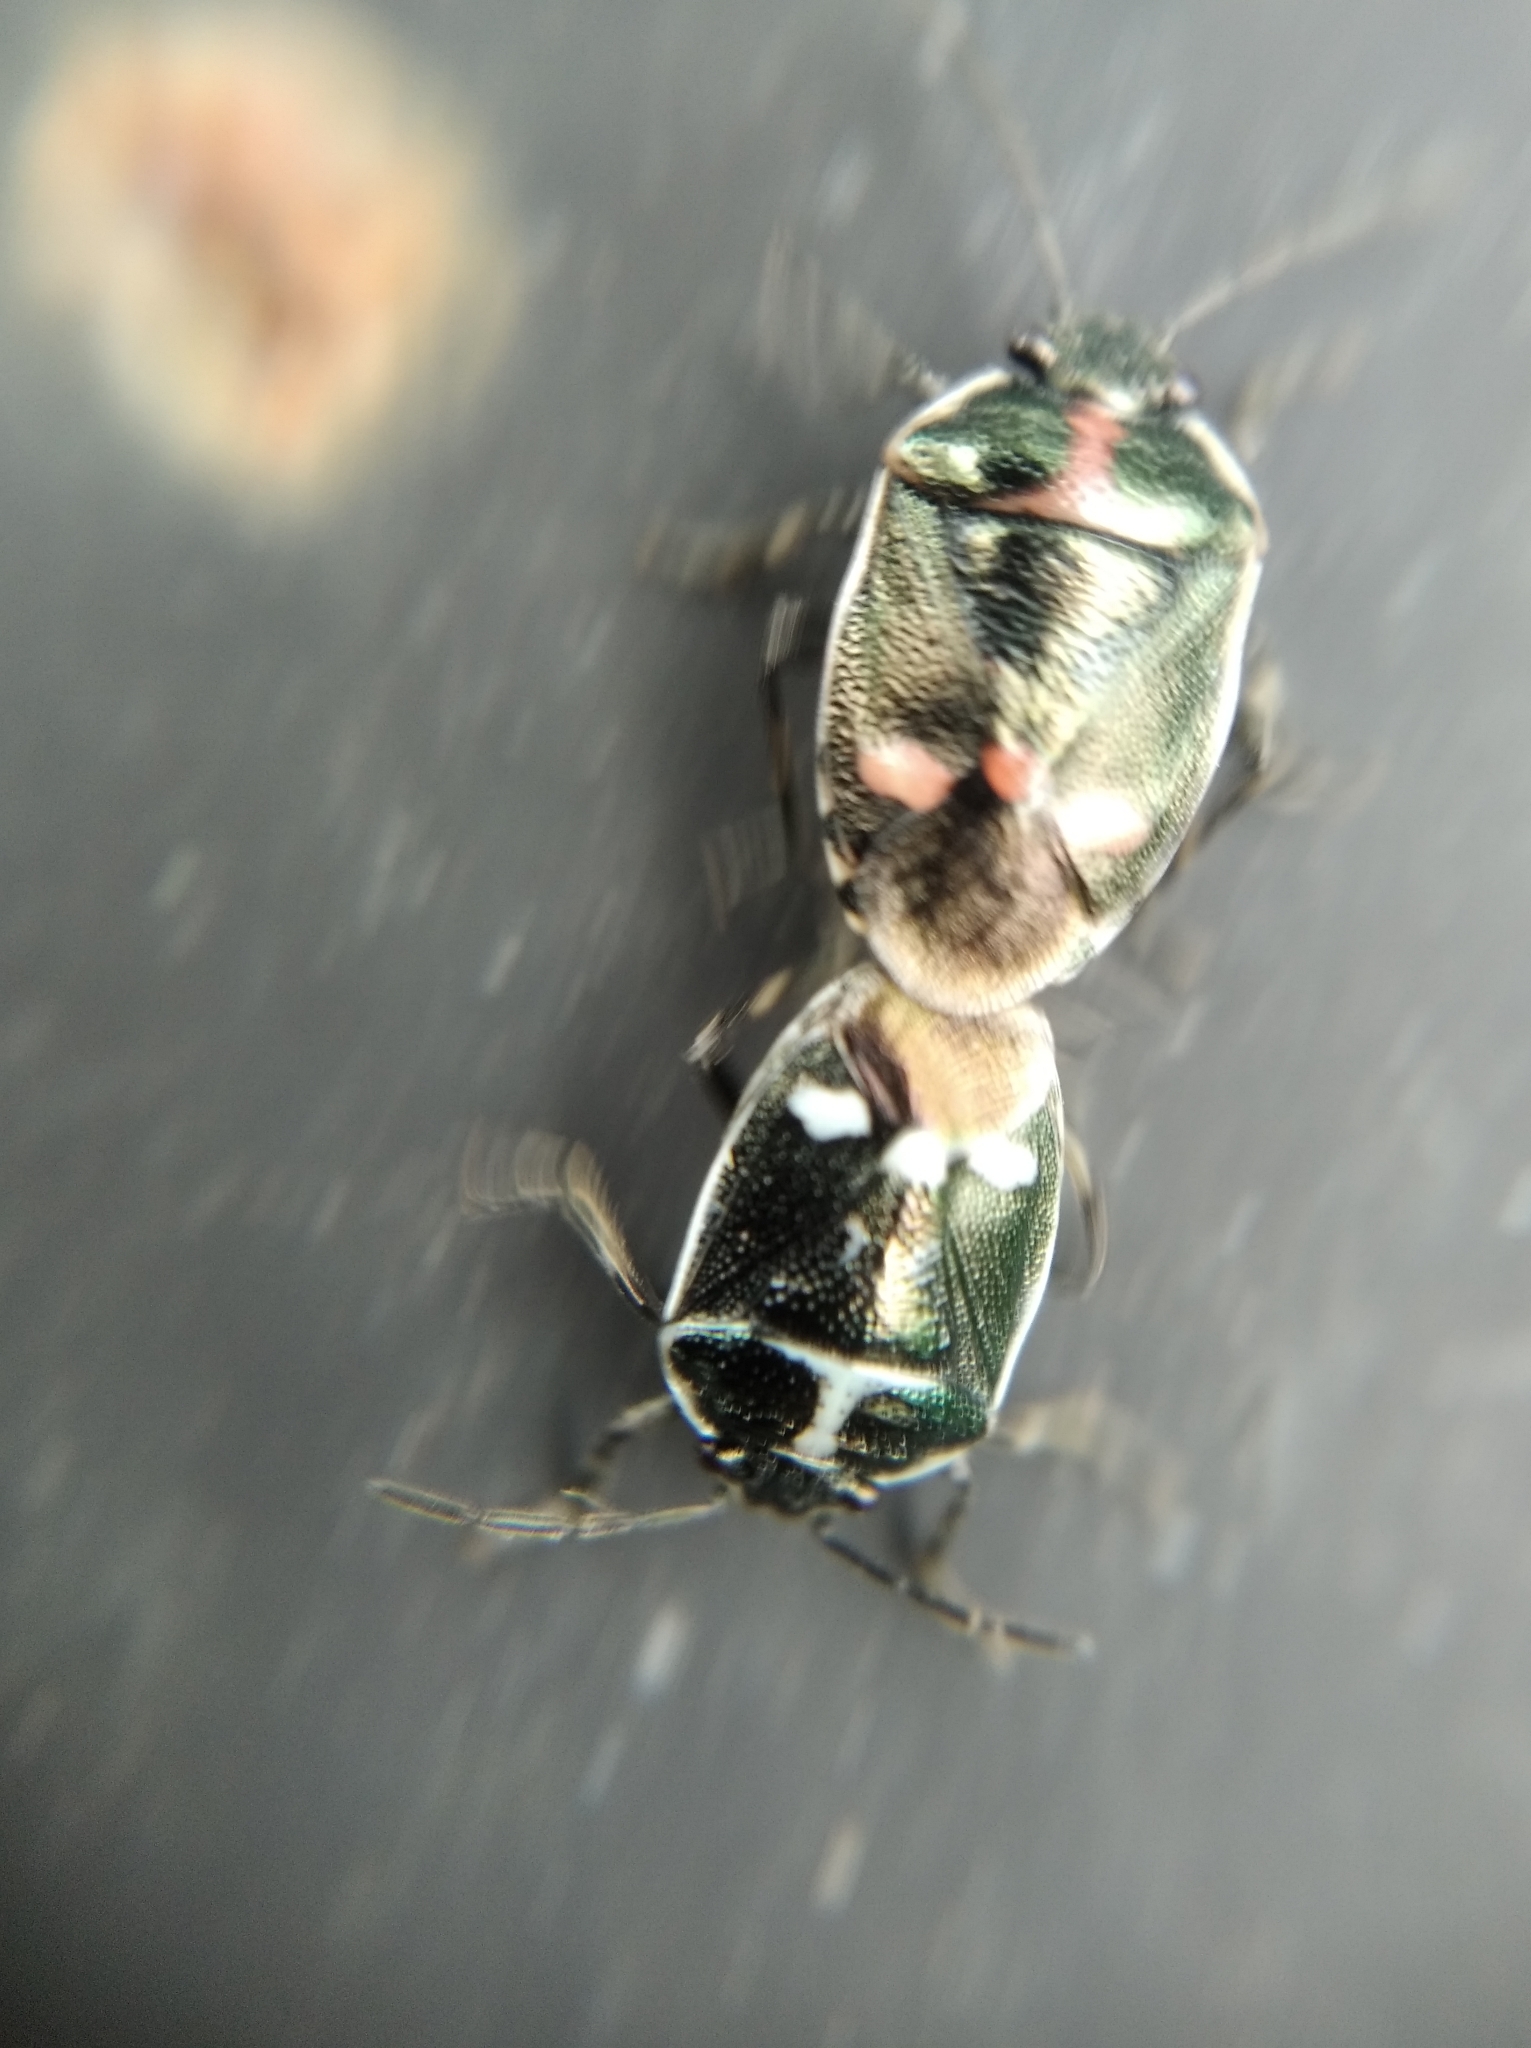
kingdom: Animalia
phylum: Arthropoda
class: Insecta
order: Hemiptera
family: Pentatomidae
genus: Eurydema
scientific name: Eurydema oleracea
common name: Cabbage bug
